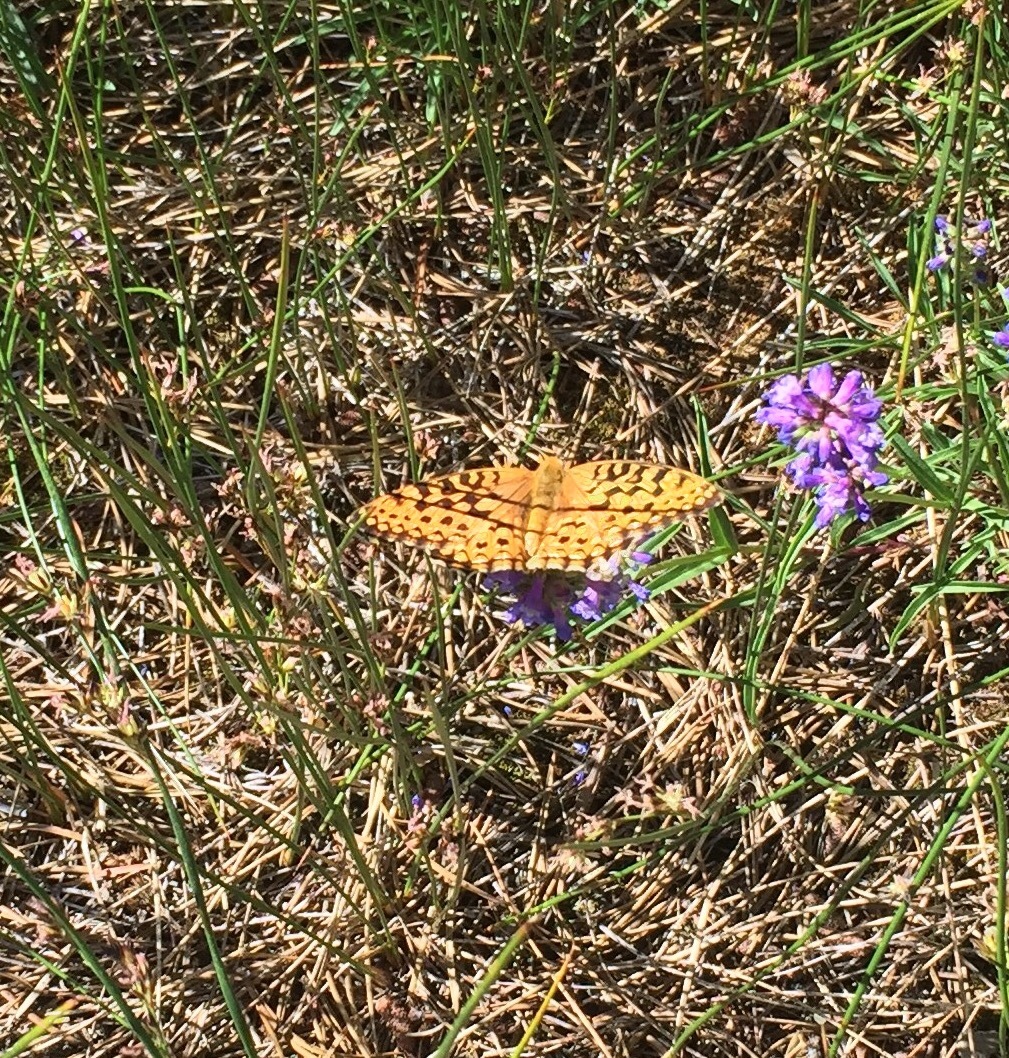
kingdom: Animalia
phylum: Arthropoda
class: Insecta
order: Lepidoptera
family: Nymphalidae
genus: Speyeria
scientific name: Speyeria mormonia
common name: Mormon fritillary
